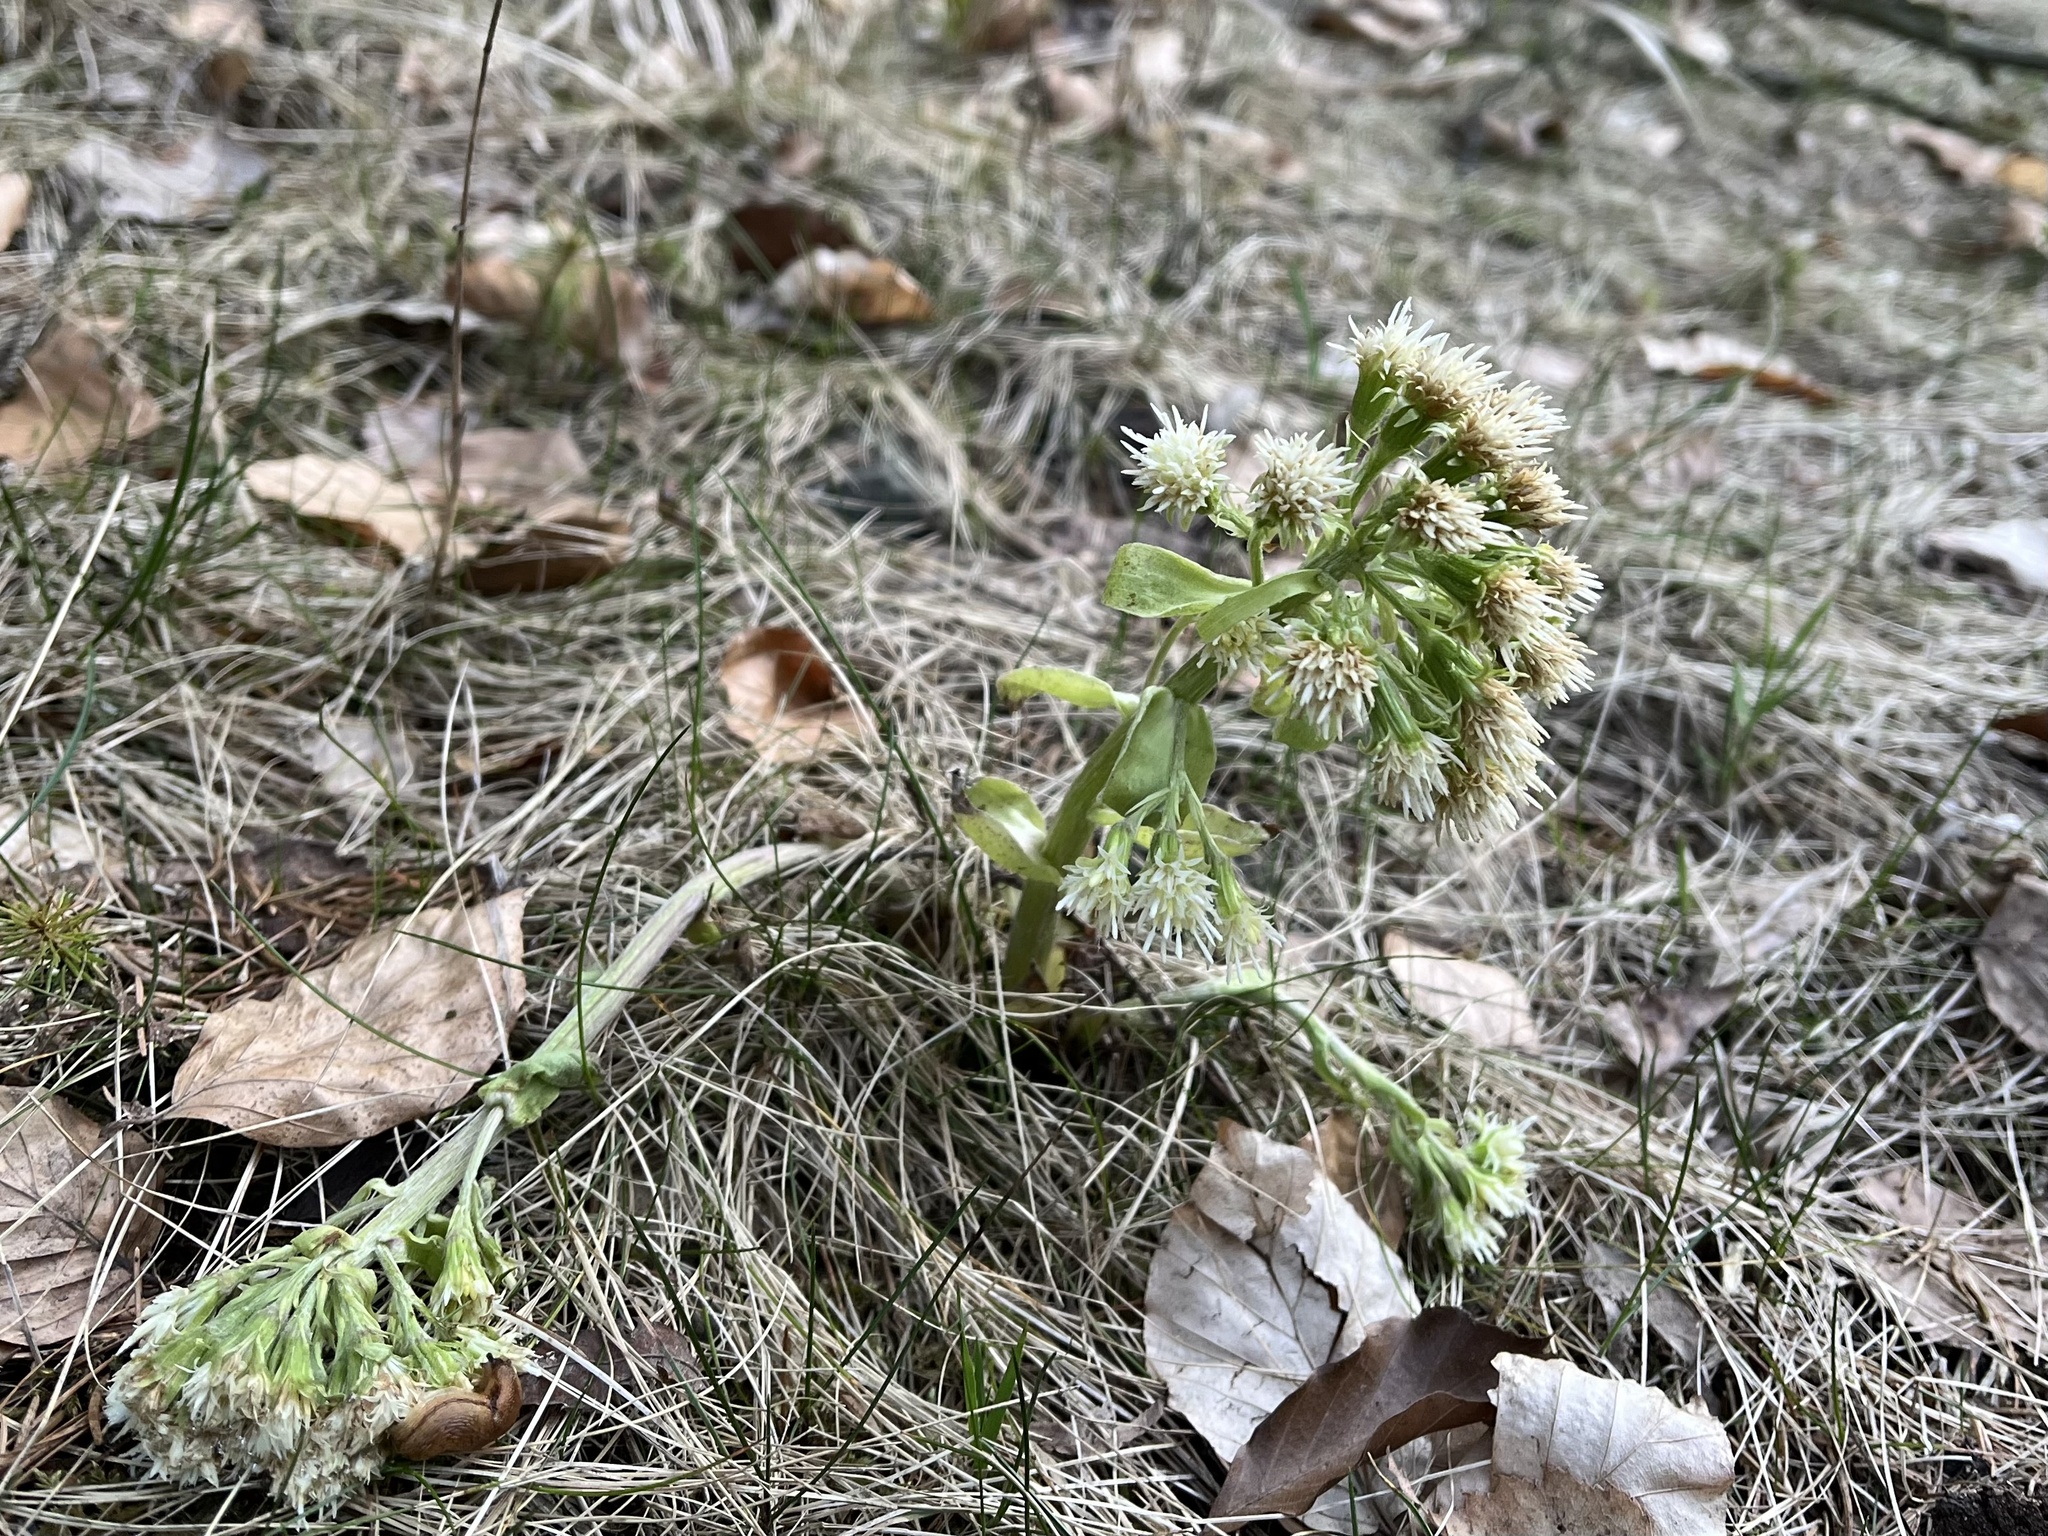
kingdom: Plantae
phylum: Tracheophyta
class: Magnoliopsida
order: Asterales
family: Asteraceae
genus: Petasites
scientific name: Petasites albus
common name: White butterbur
